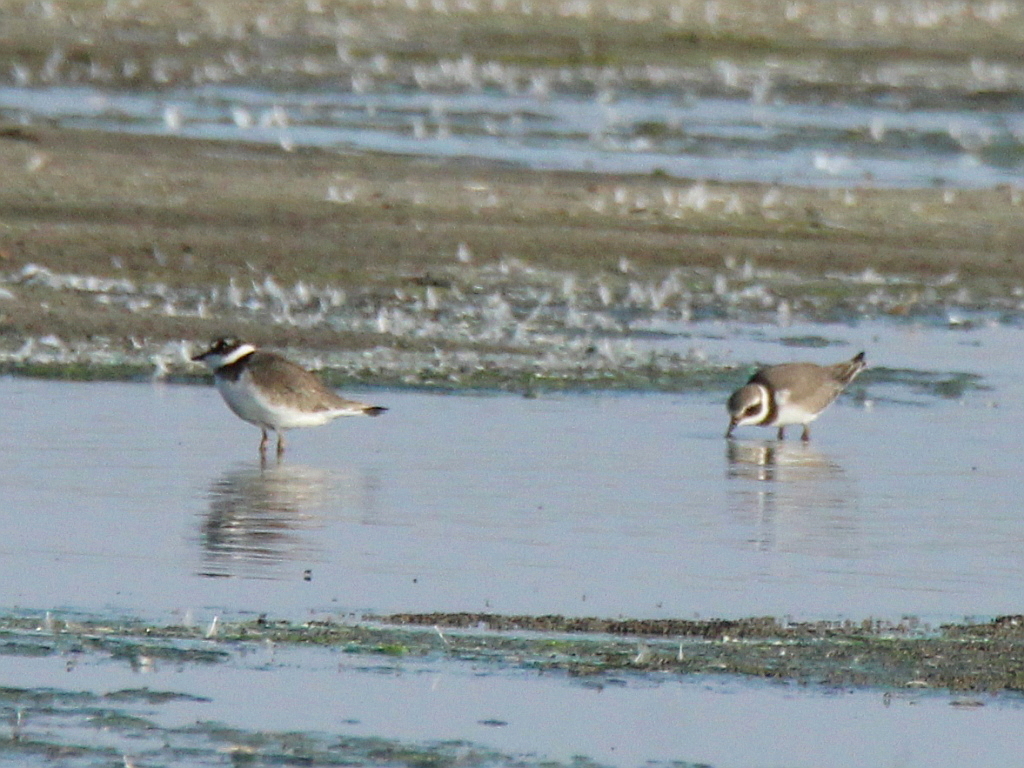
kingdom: Animalia
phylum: Chordata
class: Aves
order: Charadriiformes
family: Charadriidae
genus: Charadrius
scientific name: Charadrius hiaticula
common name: Common ringed plover
